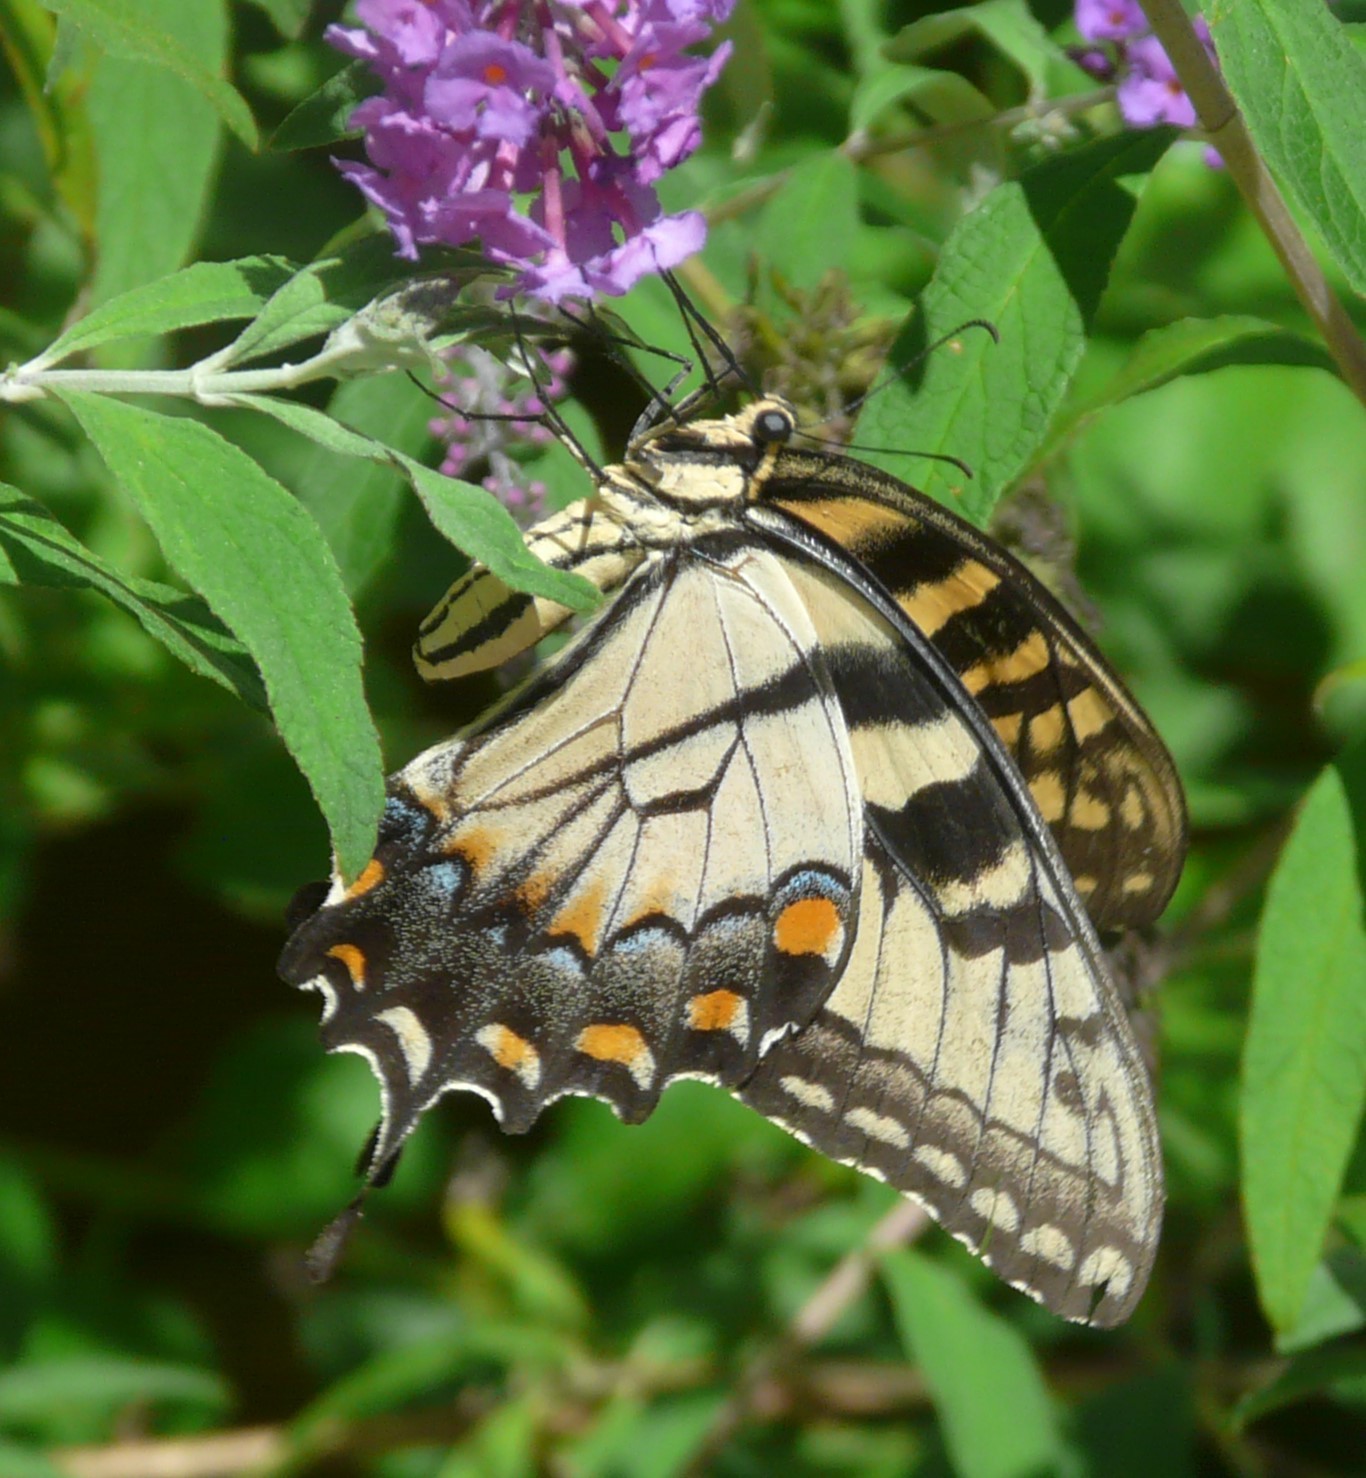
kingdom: Animalia
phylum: Arthropoda
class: Insecta
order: Lepidoptera
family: Papilionidae
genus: Papilio
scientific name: Papilio glaucus
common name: Tiger swallowtail
